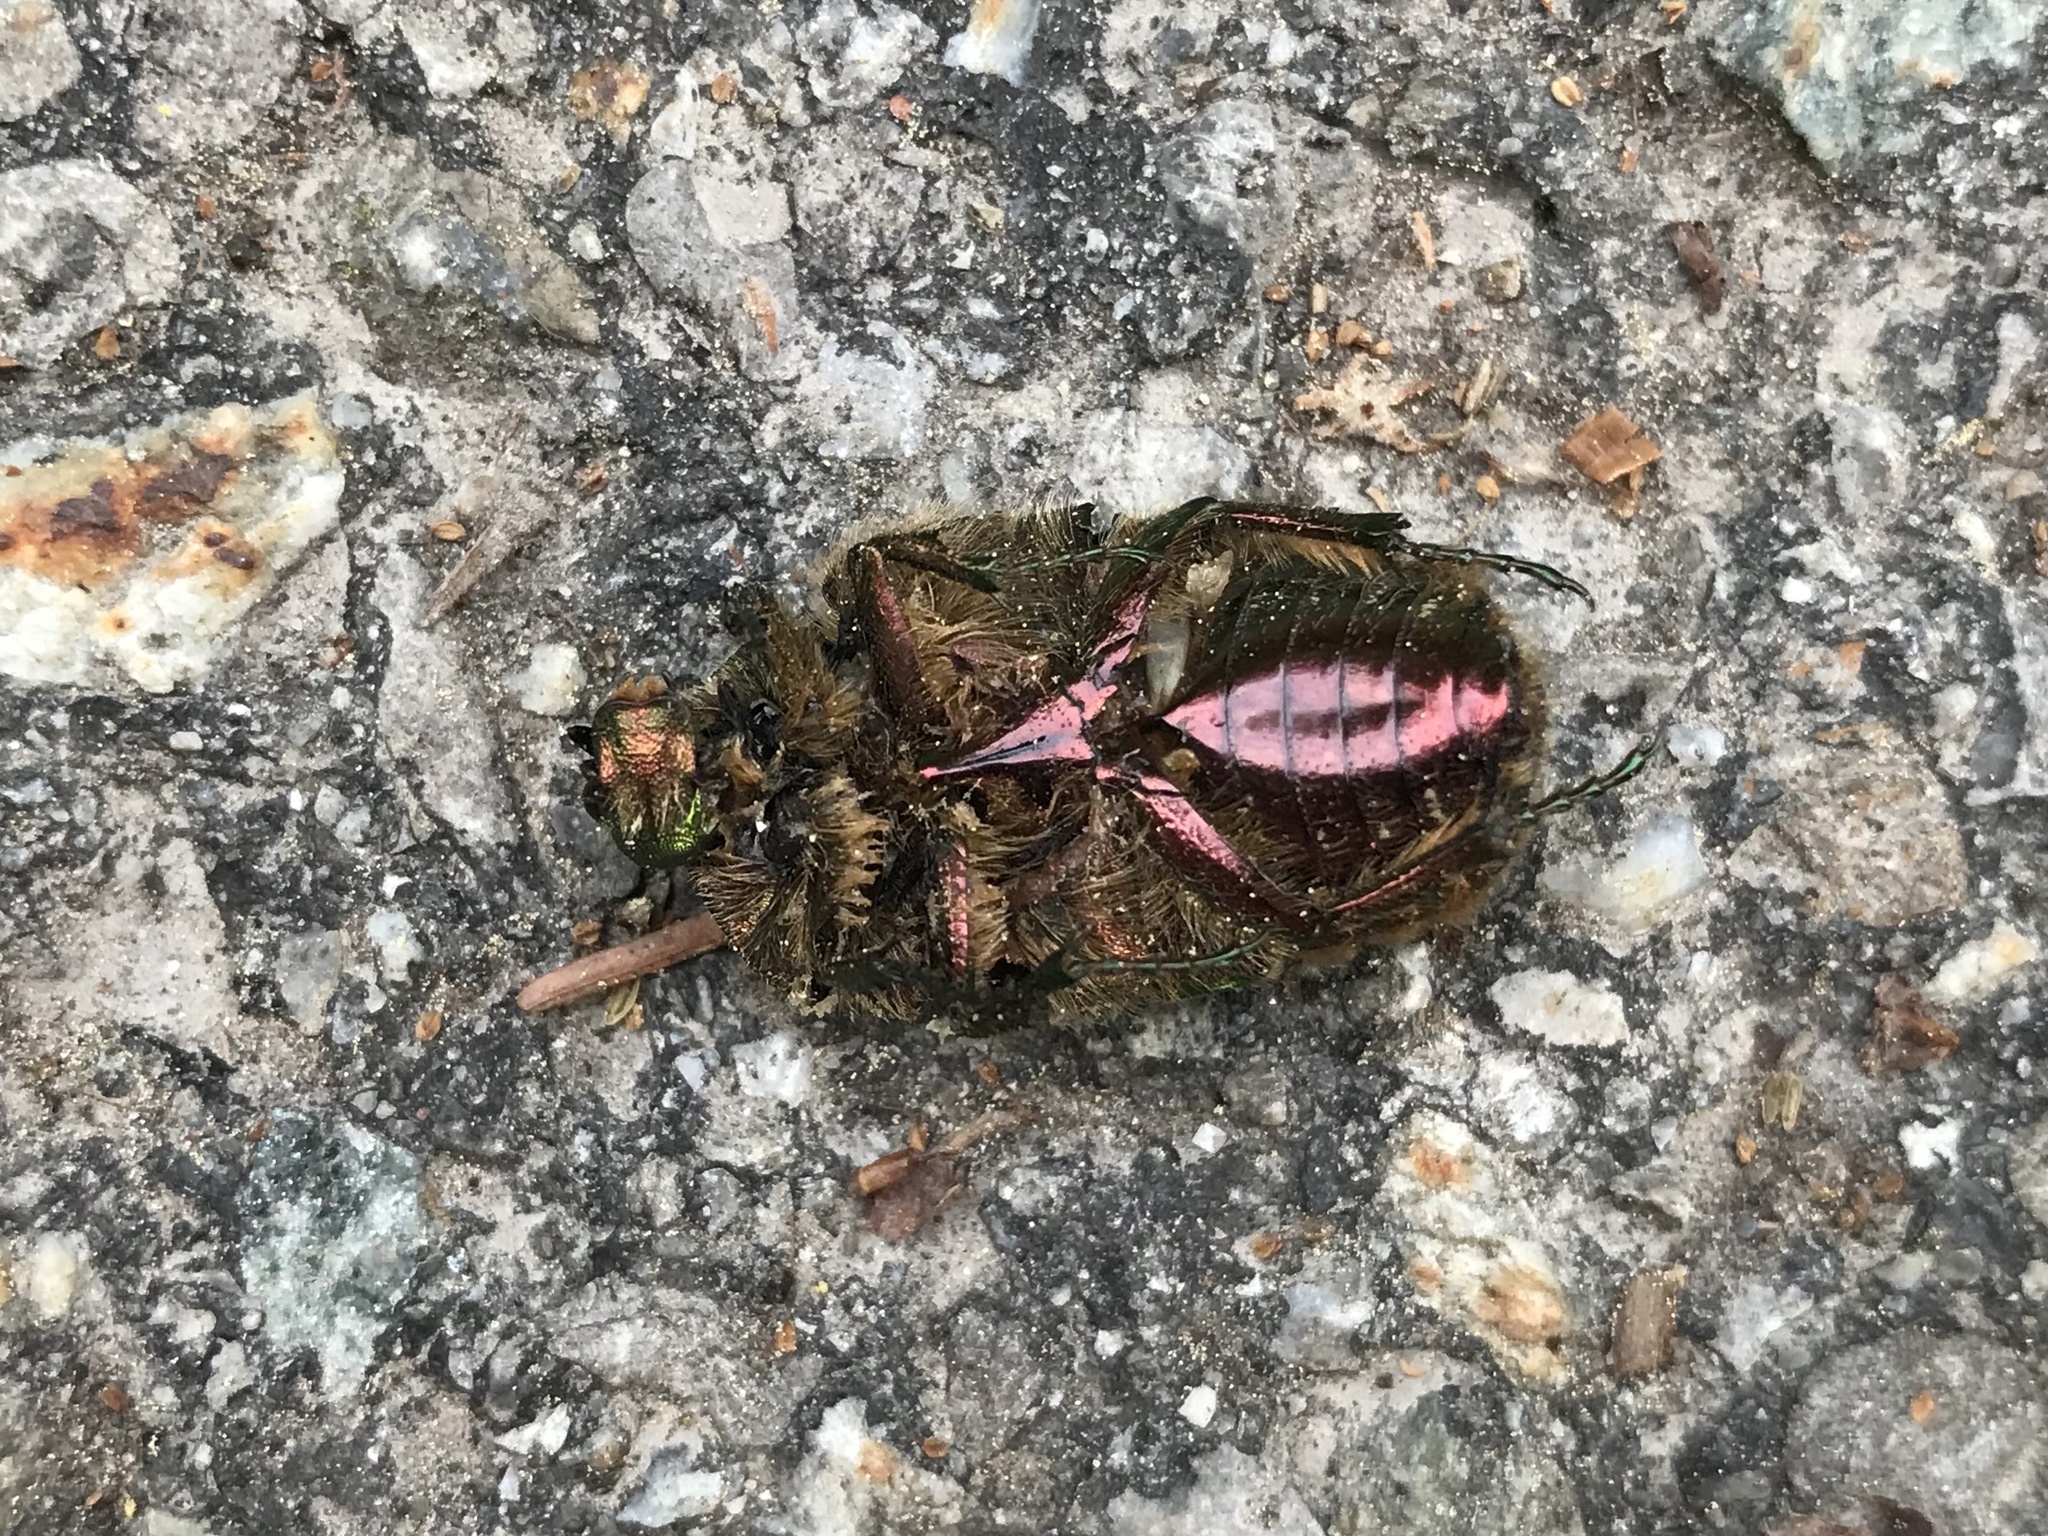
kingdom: Animalia
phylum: Arthropoda
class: Insecta
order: Coleoptera
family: Scarabaeidae
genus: Cetonia
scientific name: Cetonia aurata
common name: Rose chafer
